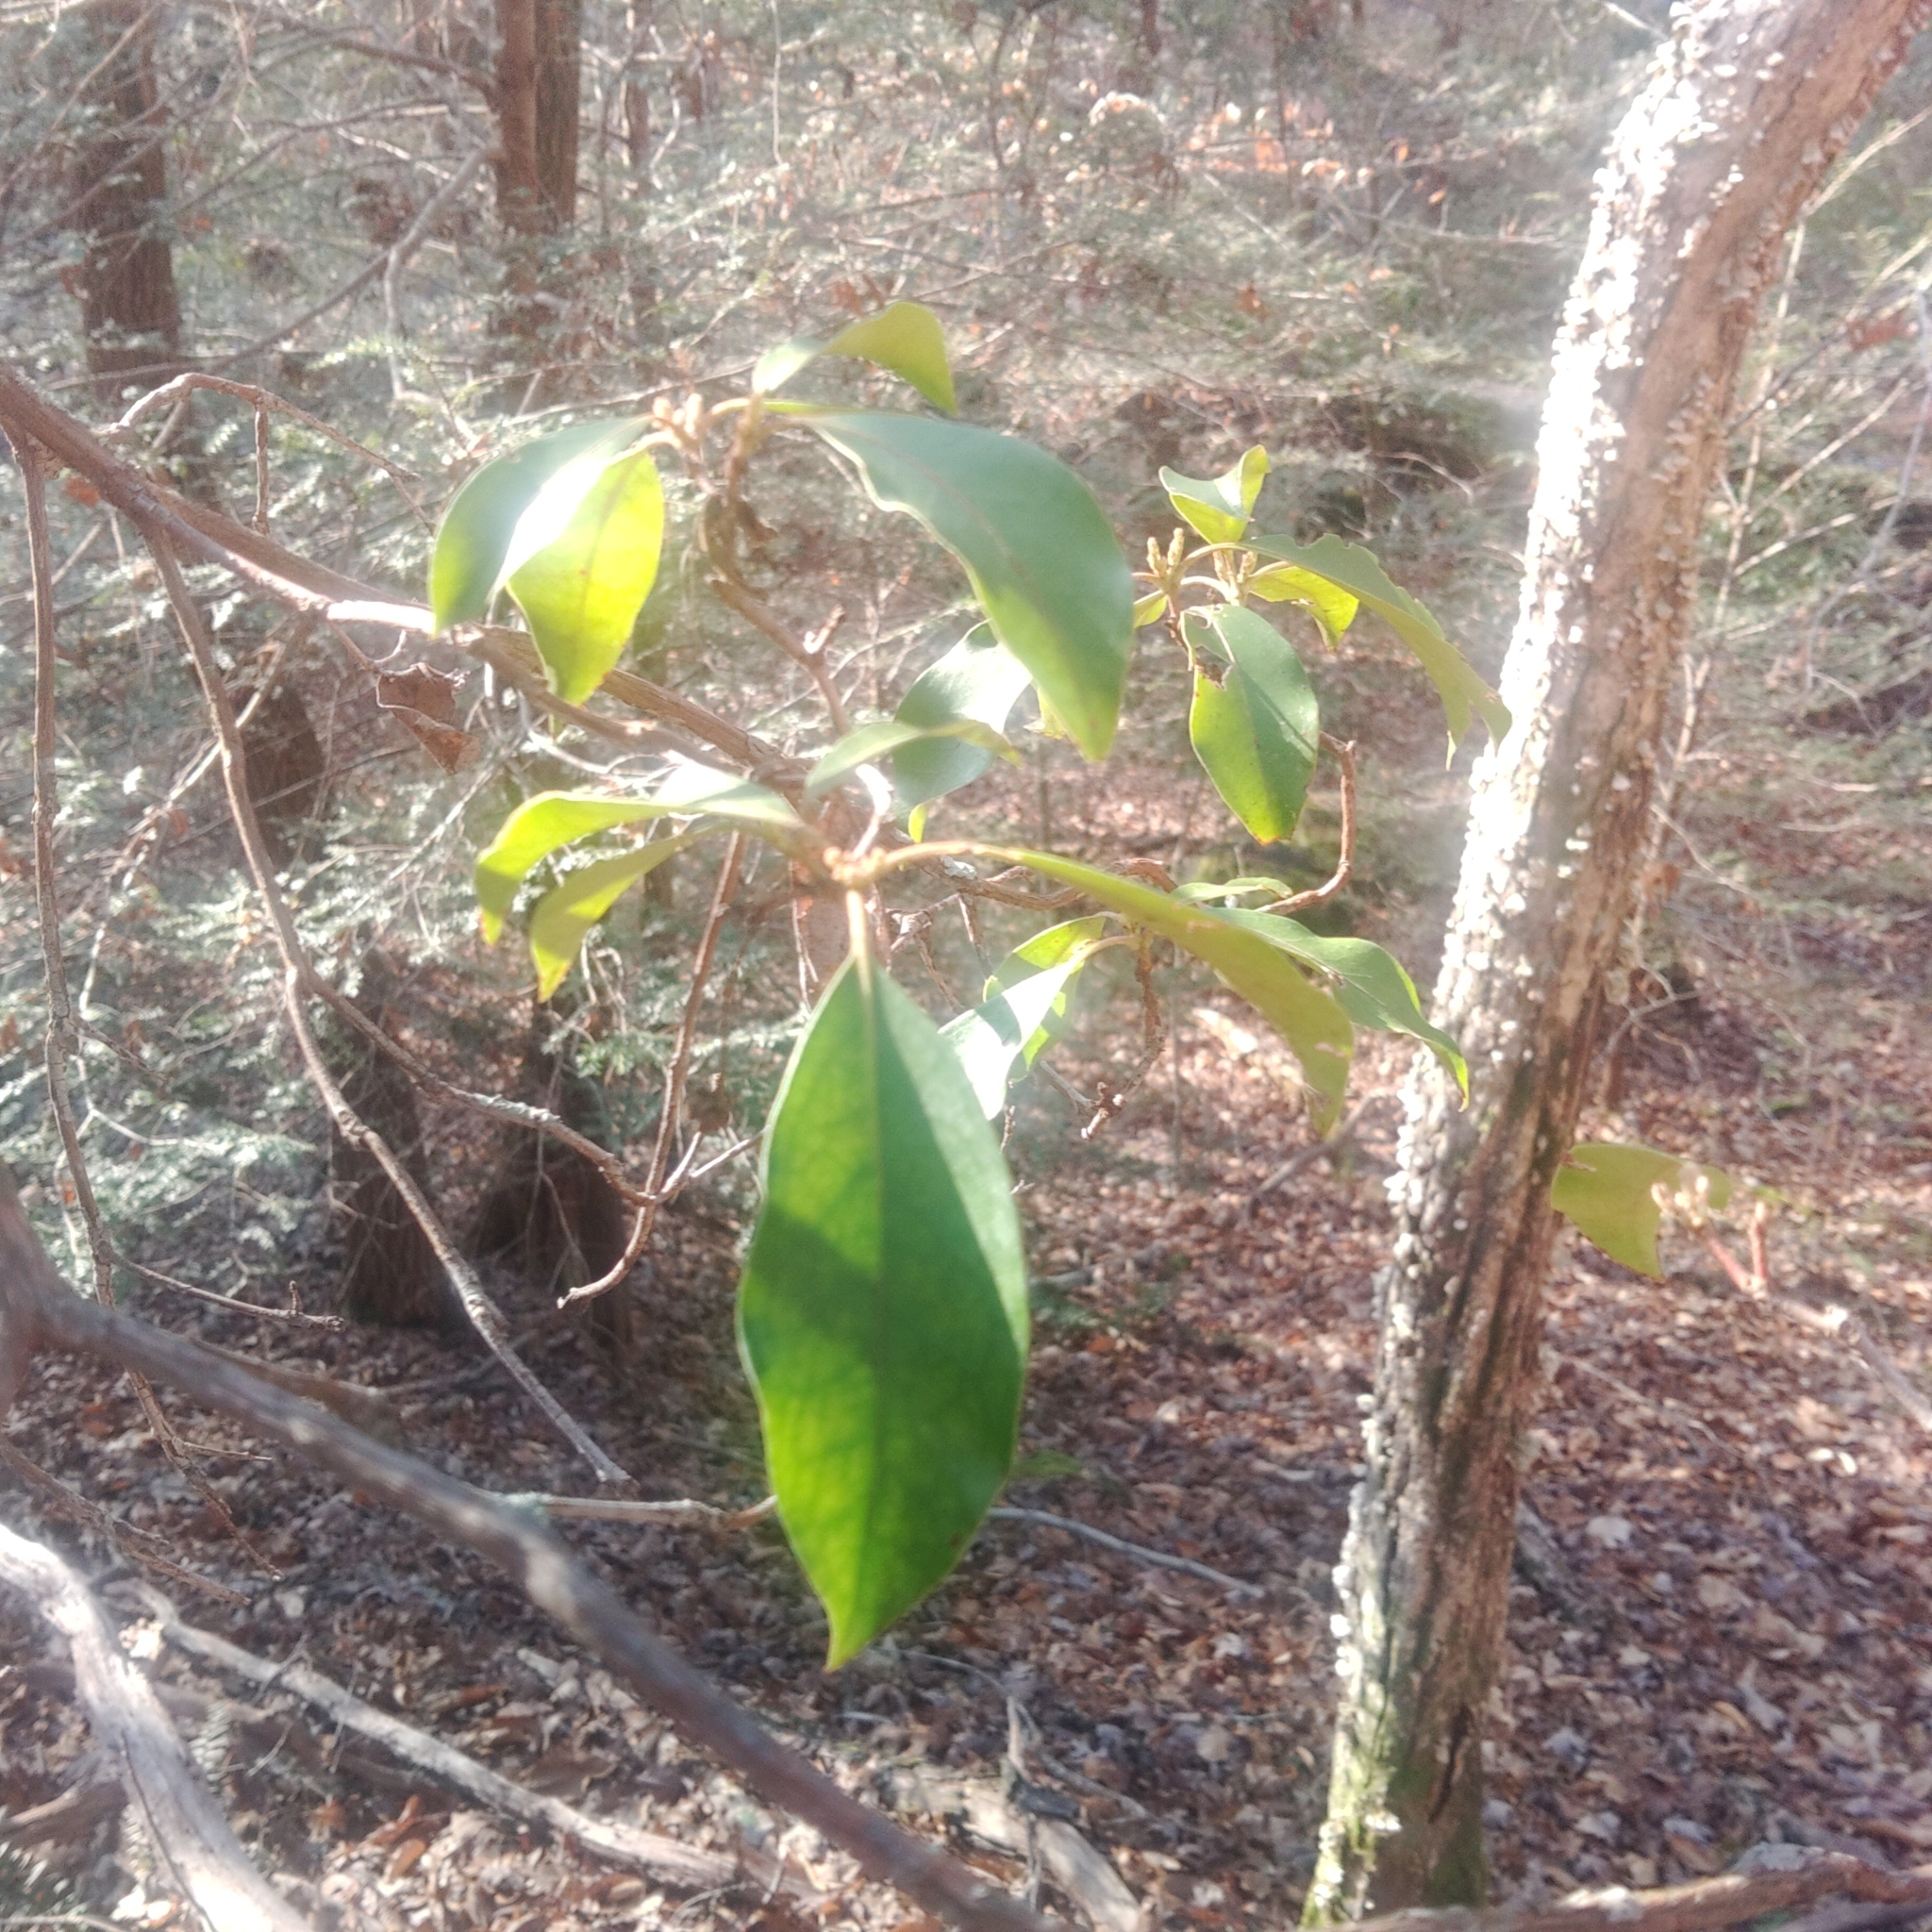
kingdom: Plantae
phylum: Tracheophyta
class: Magnoliopsida
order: Ericales
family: Ericaceae
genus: Kalmia
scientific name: Kalmia latifolia
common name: Mountain-laurel
